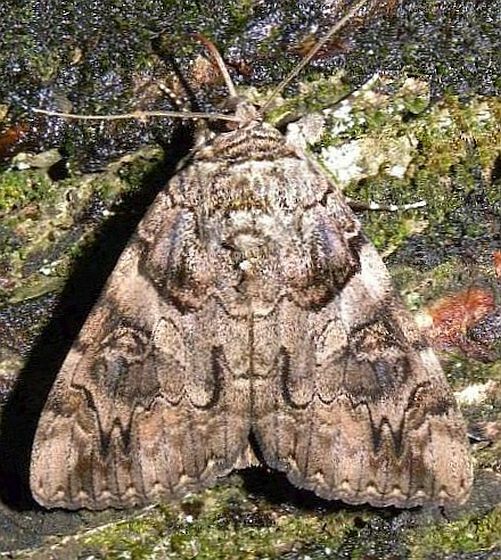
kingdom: Animalia
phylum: Arthropoda
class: Insecta
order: Lepidoptera
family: Erebidae
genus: Catocala
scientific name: Catocala piatrix
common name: The penitent underwing
